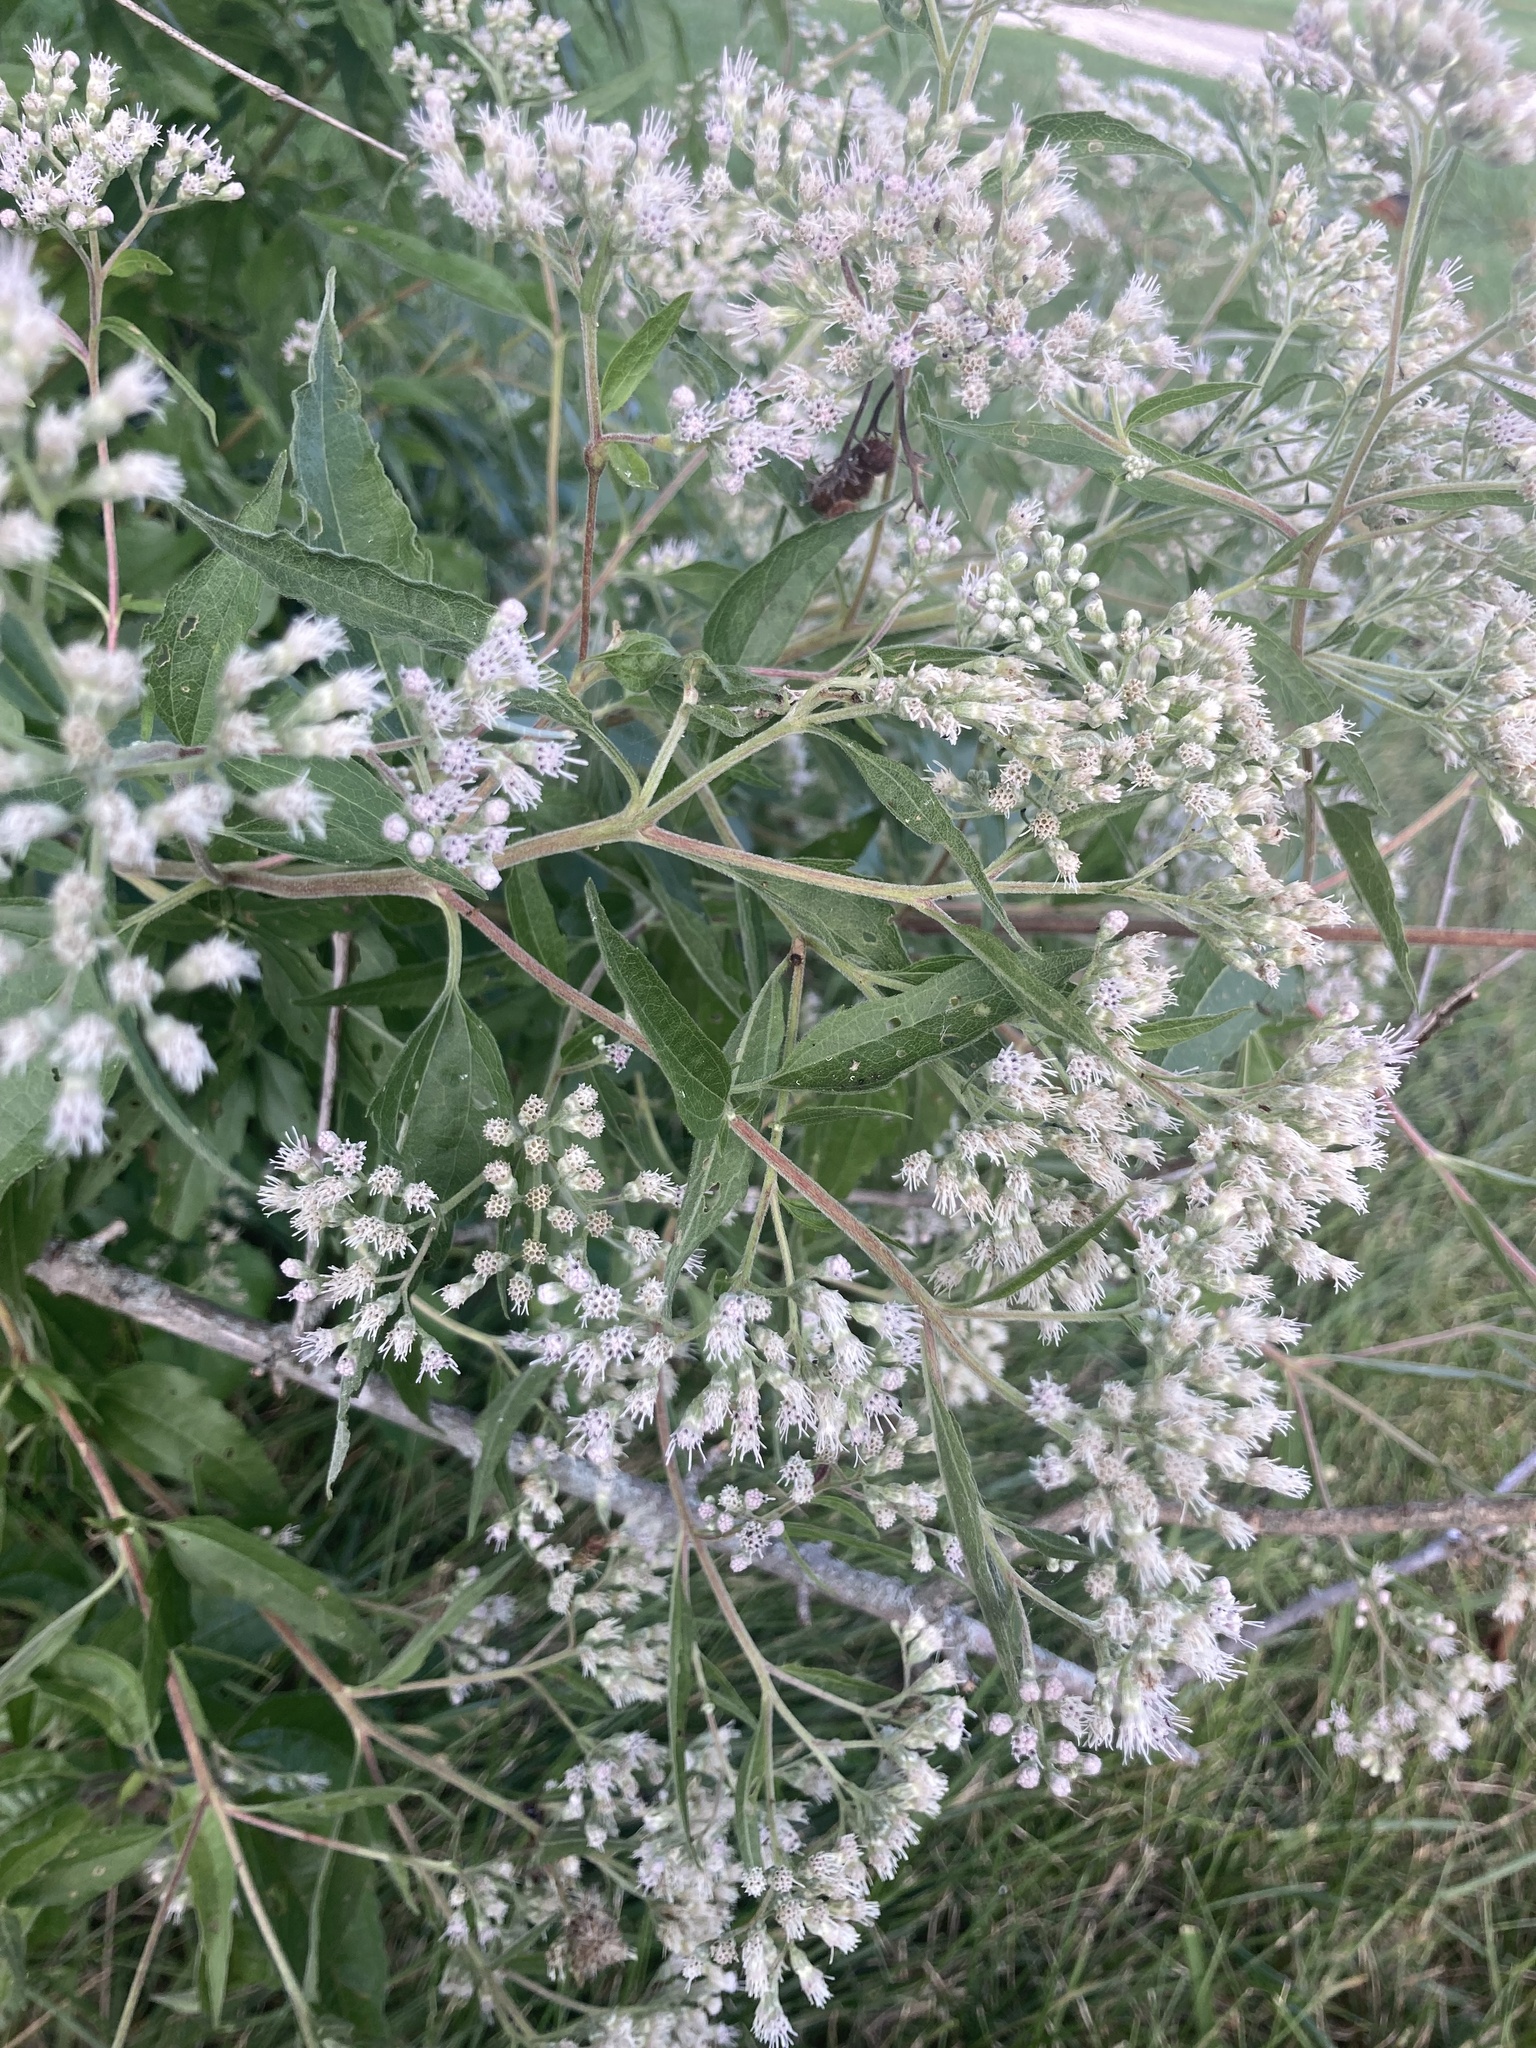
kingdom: Plantae
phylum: Tracheophyta
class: Magnoliopsida
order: Asterales
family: Asteraceae
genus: Eupatorium
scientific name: Eupatorium serotinum
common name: Late boneset
